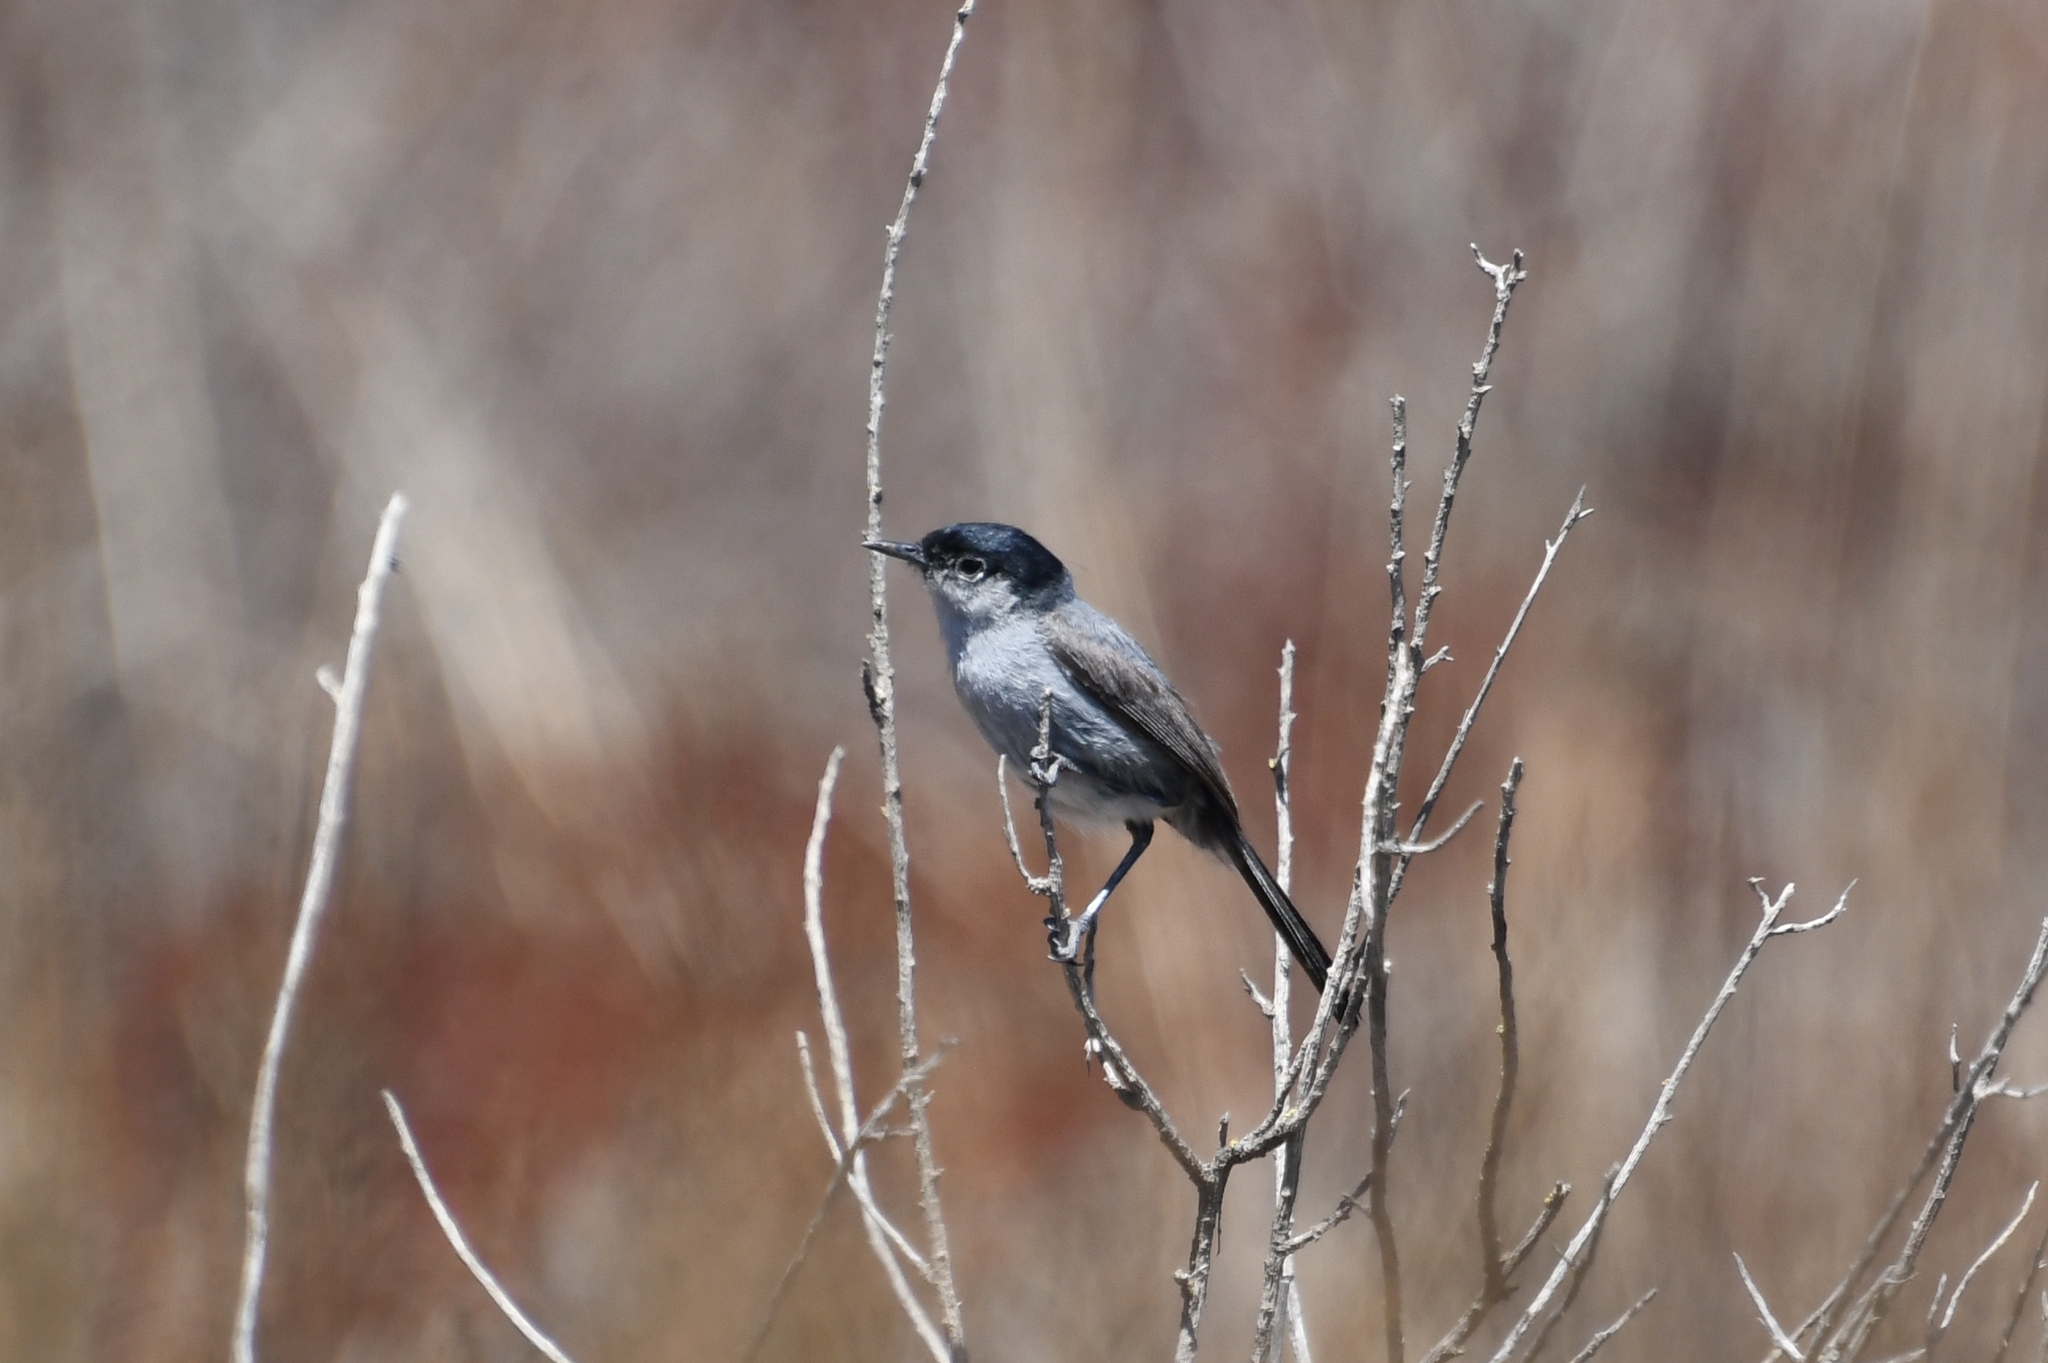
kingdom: Animalia
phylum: Chordata
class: Aves
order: Passeriformes
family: Polioptilidae
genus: Polioptila
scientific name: Polioptila californica
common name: California gnatcatcher
